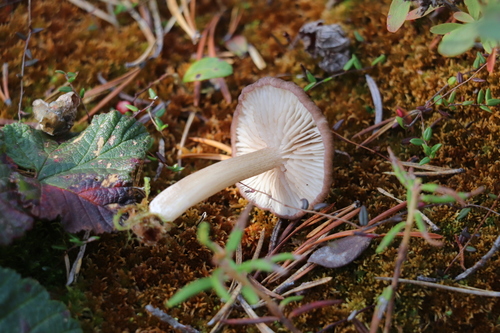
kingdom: Fungi
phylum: Basidiomycota
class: Agaricomycetes
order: Agaricales
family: Entolomataceae
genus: Entoloma
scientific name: Entoloma fuscomarginatum
